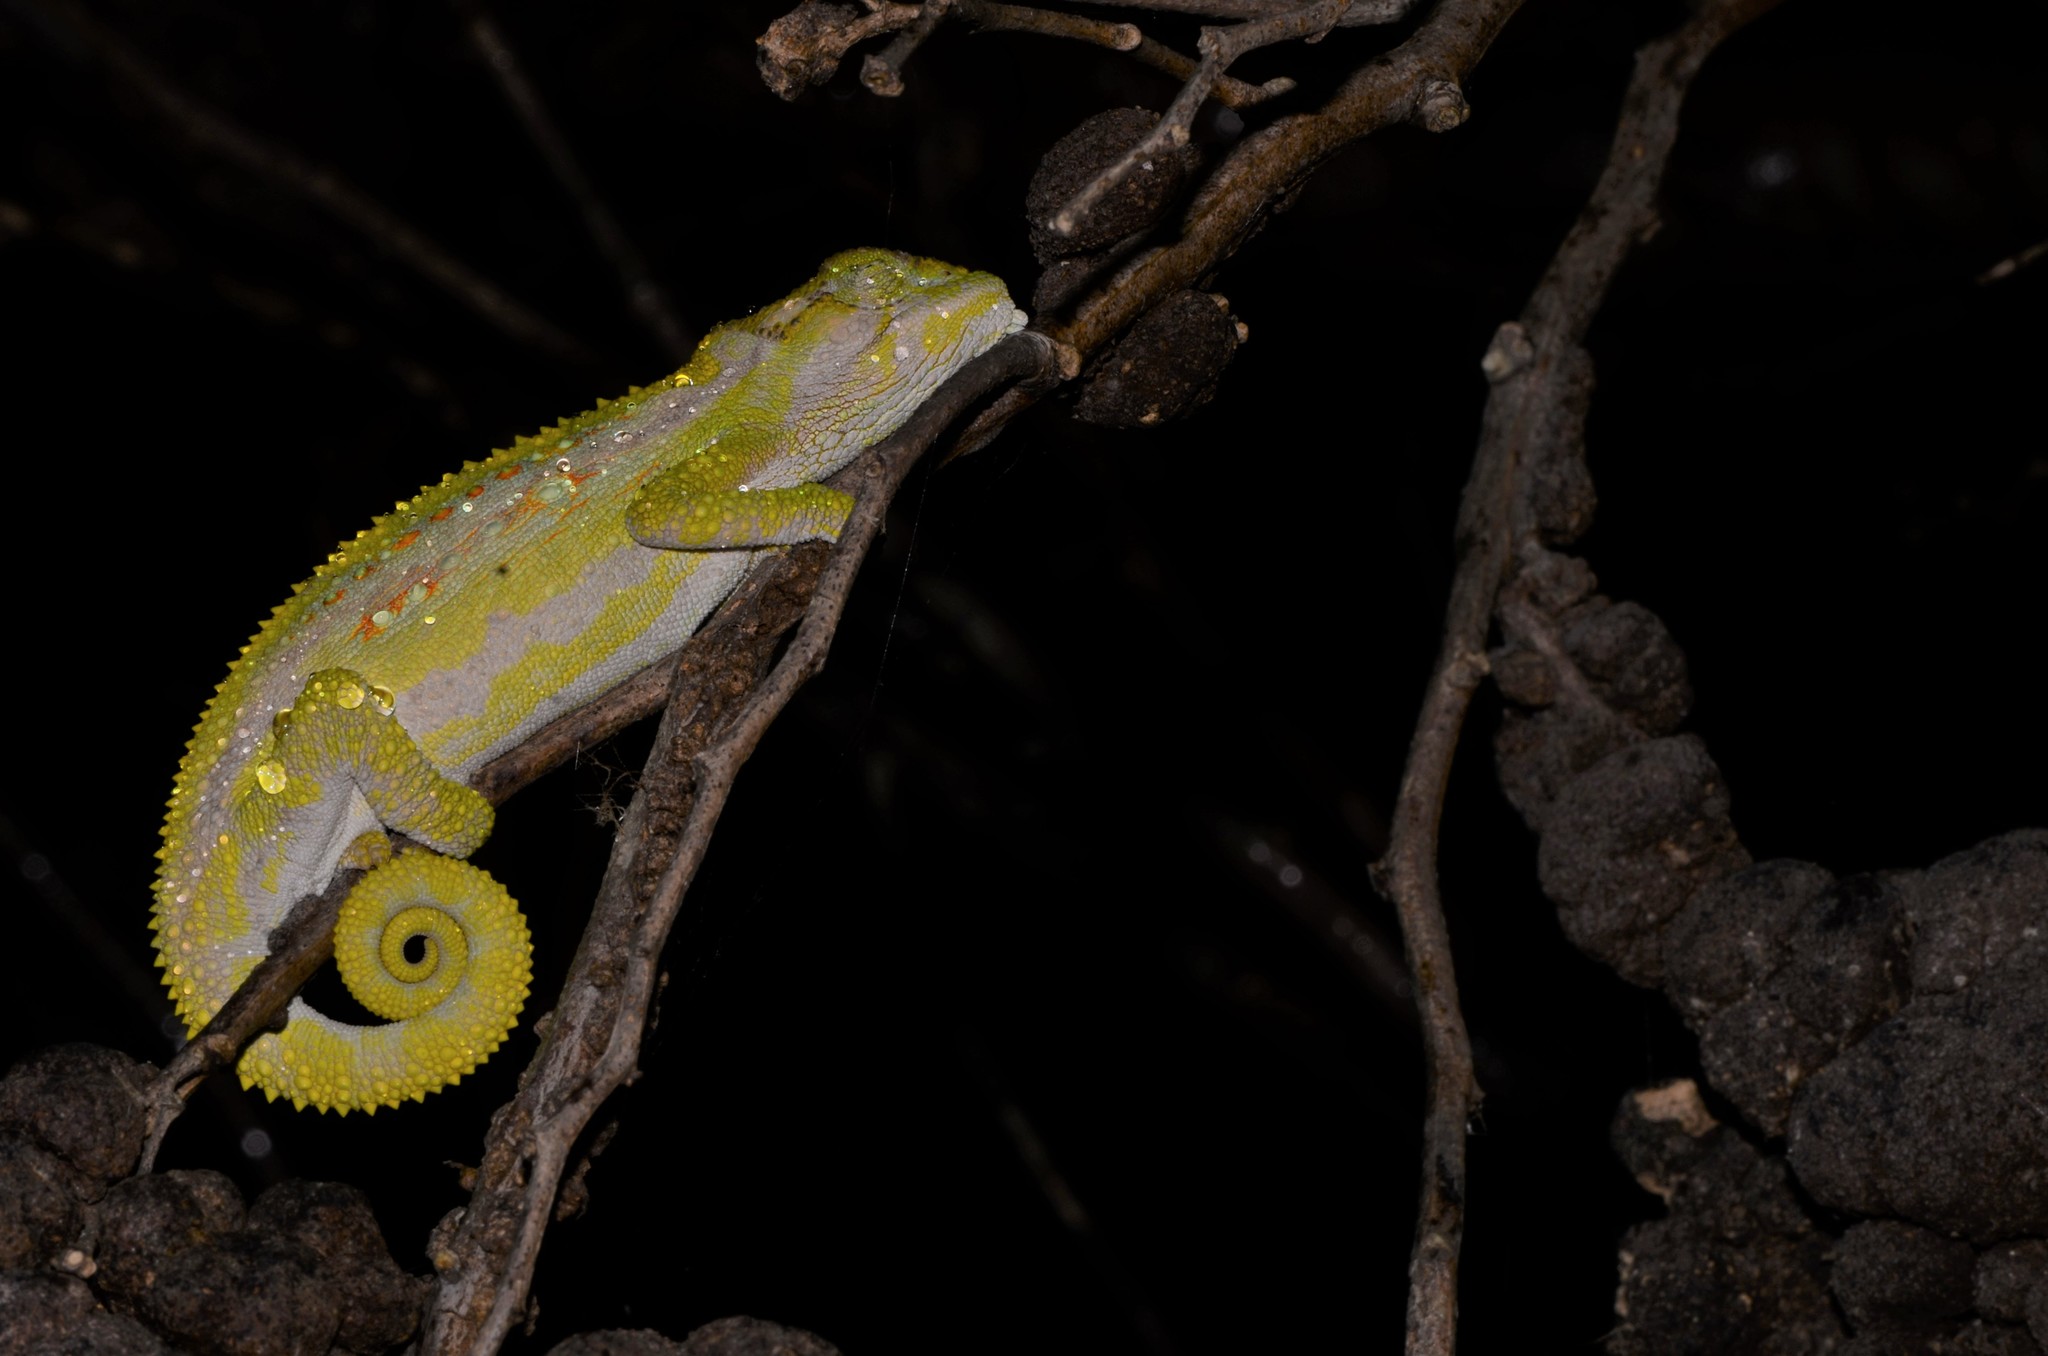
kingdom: Animalia
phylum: Chordata
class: Squamata
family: Chamaeleonidae
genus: Bradypodion
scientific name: Bradypodion pumilum
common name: Cape dwarf chameleon
